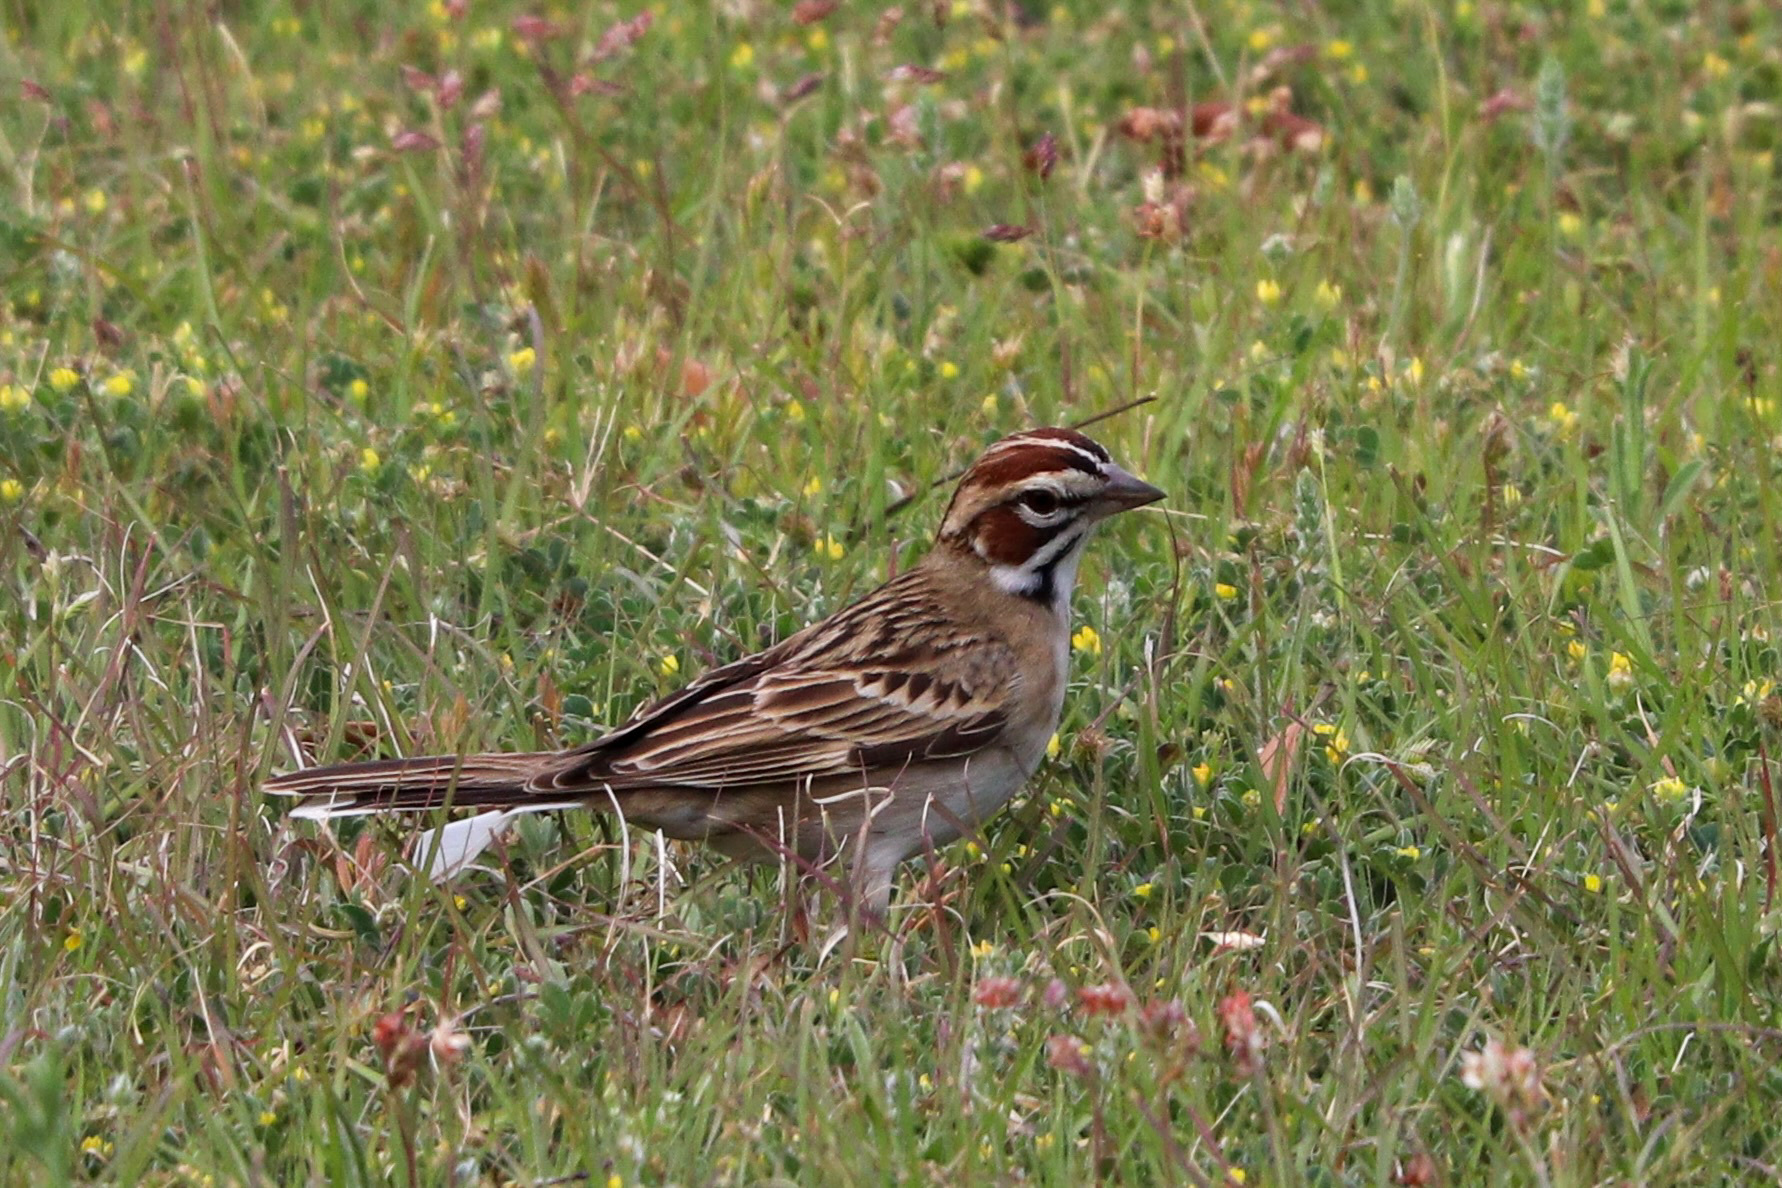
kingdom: Animalia
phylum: Chordata
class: Aves
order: Passeriformes
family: Passerellidae
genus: Chondestes
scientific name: Chondestes grammacus
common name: Lark sparrow
